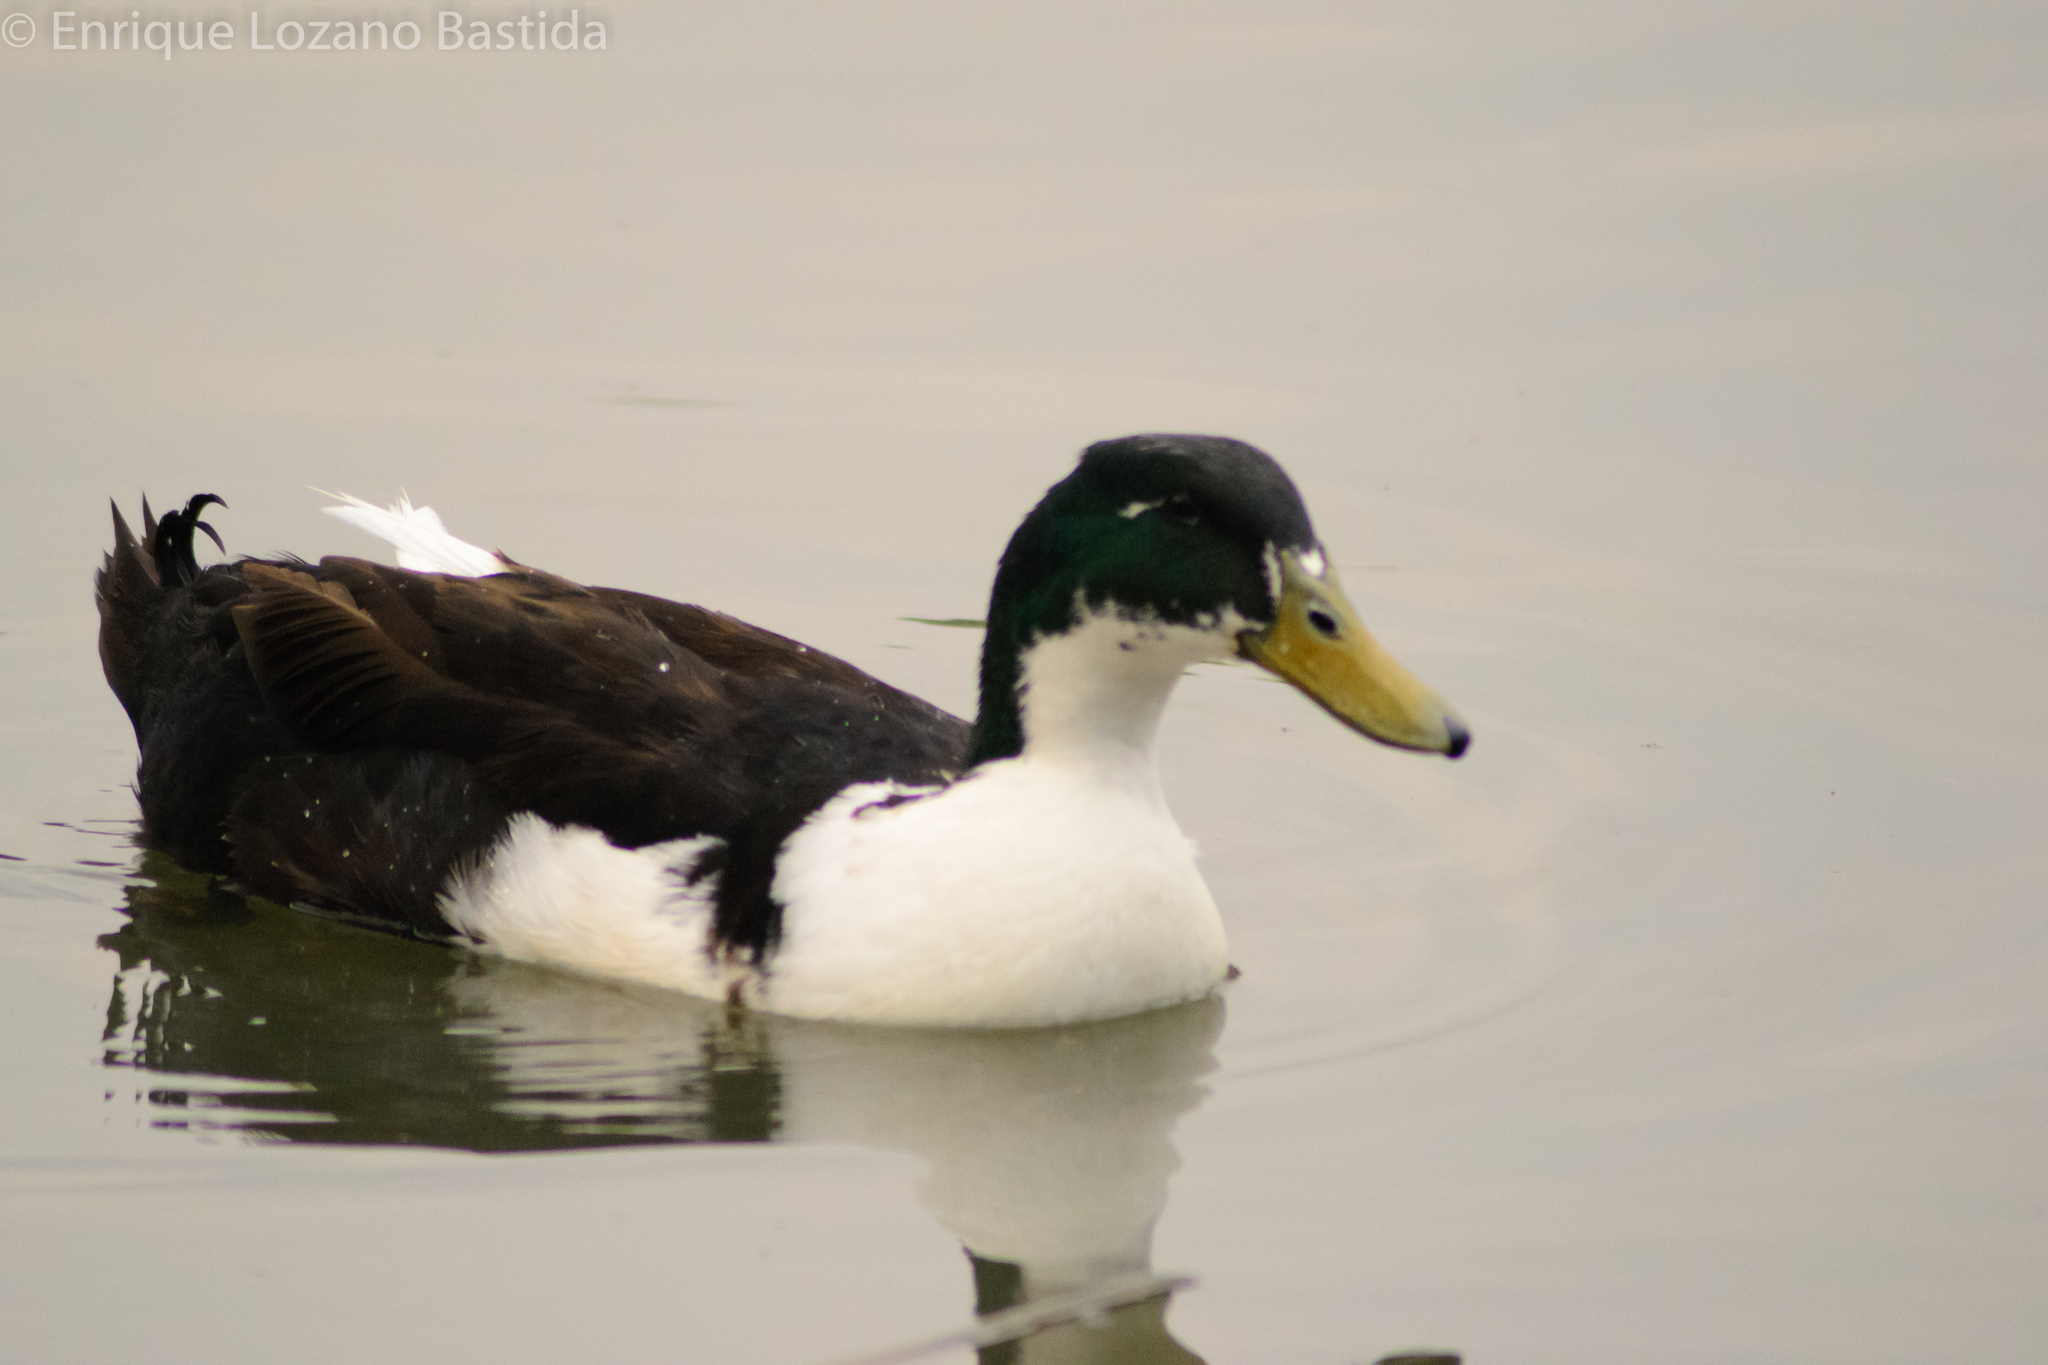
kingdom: Animalia
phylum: Chordata
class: Aves
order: Anseriformes
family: Anatidae
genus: Anas
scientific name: Anas platyrhynchos
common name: Mallard
